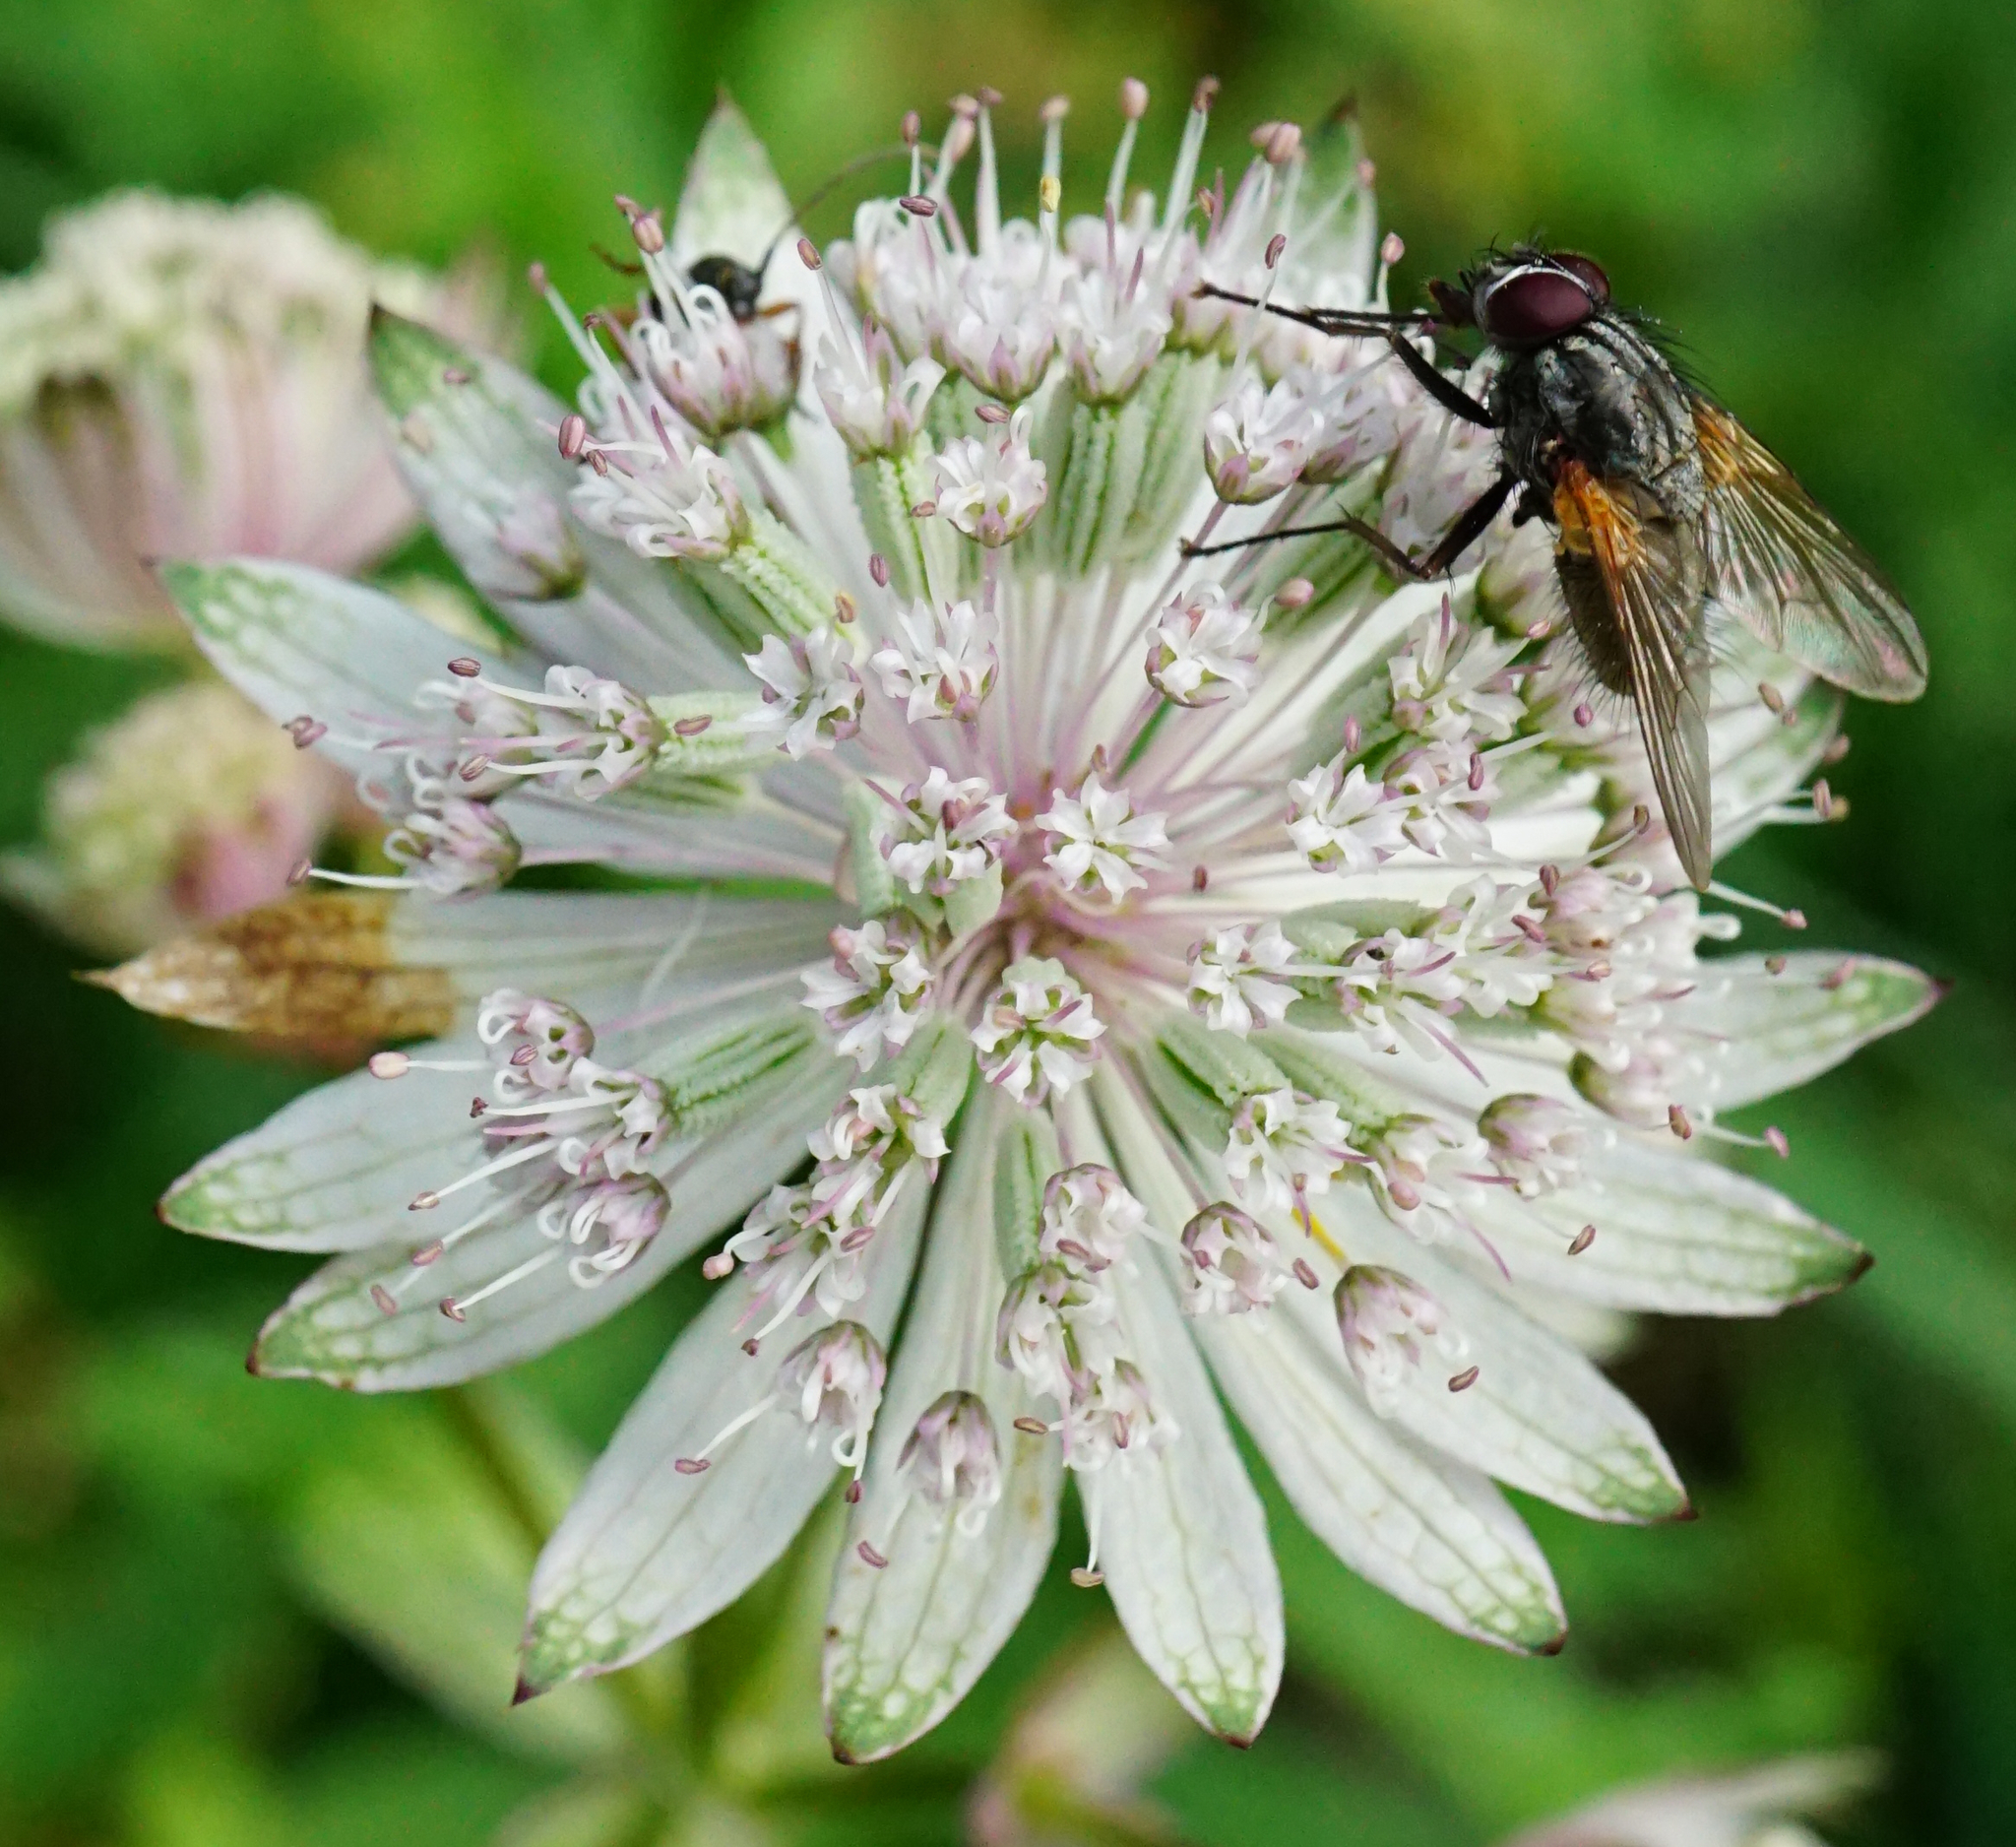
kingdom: Plantae
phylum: Tracheophyta
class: Magnoliopsida
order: Apiales
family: Apiaceae
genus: Astrantia
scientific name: Astrantia major
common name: Greater masterwort
